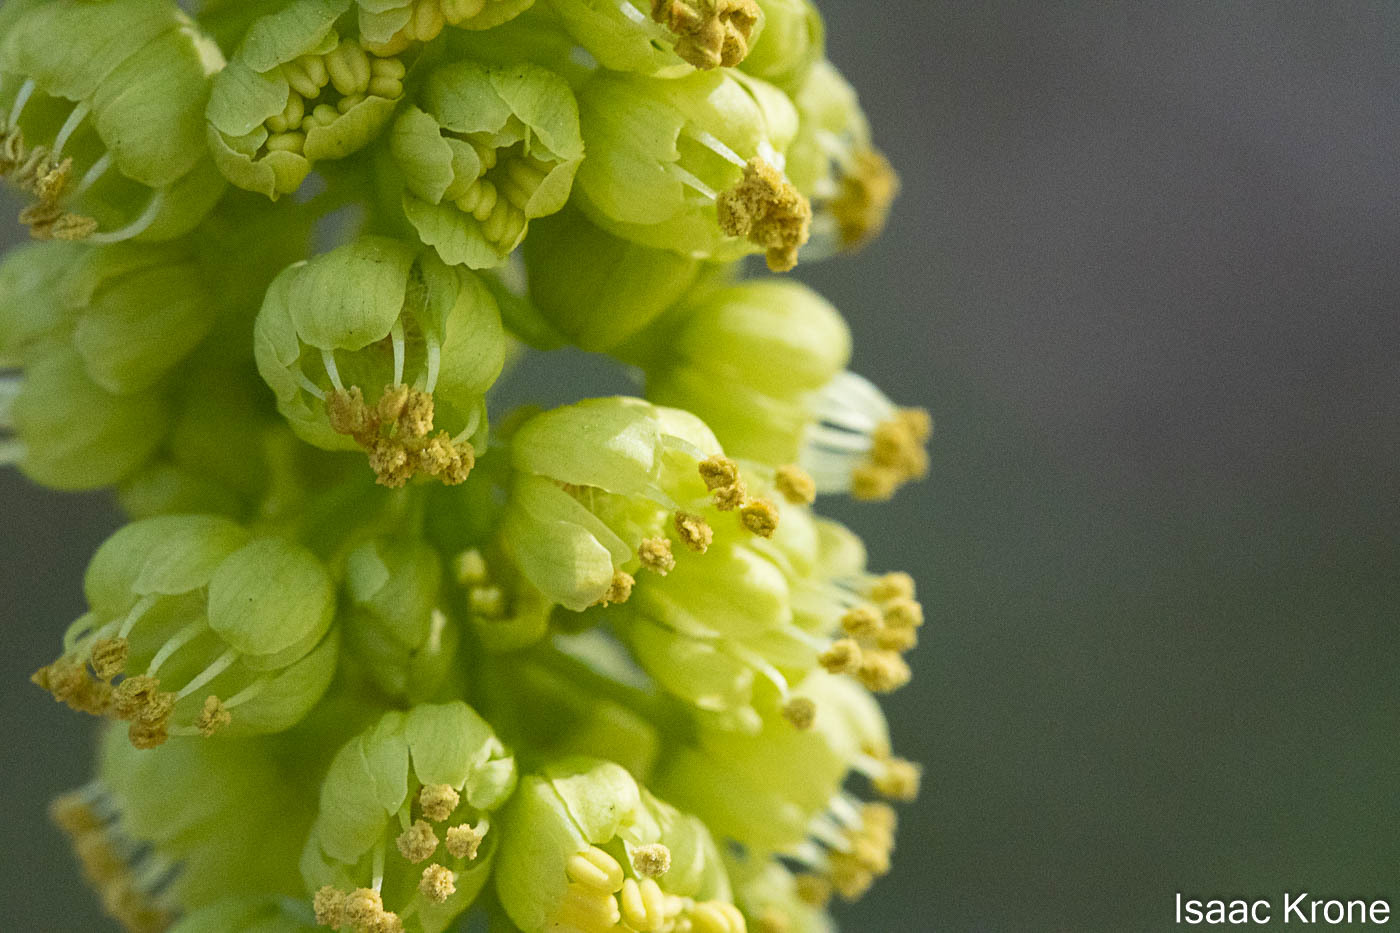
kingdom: Plantae
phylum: Tracheophyta
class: Magnoliopsida
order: Sapindales
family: Sapindaceae
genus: Acer
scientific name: Acer macrophyllum
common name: Oregon maple
